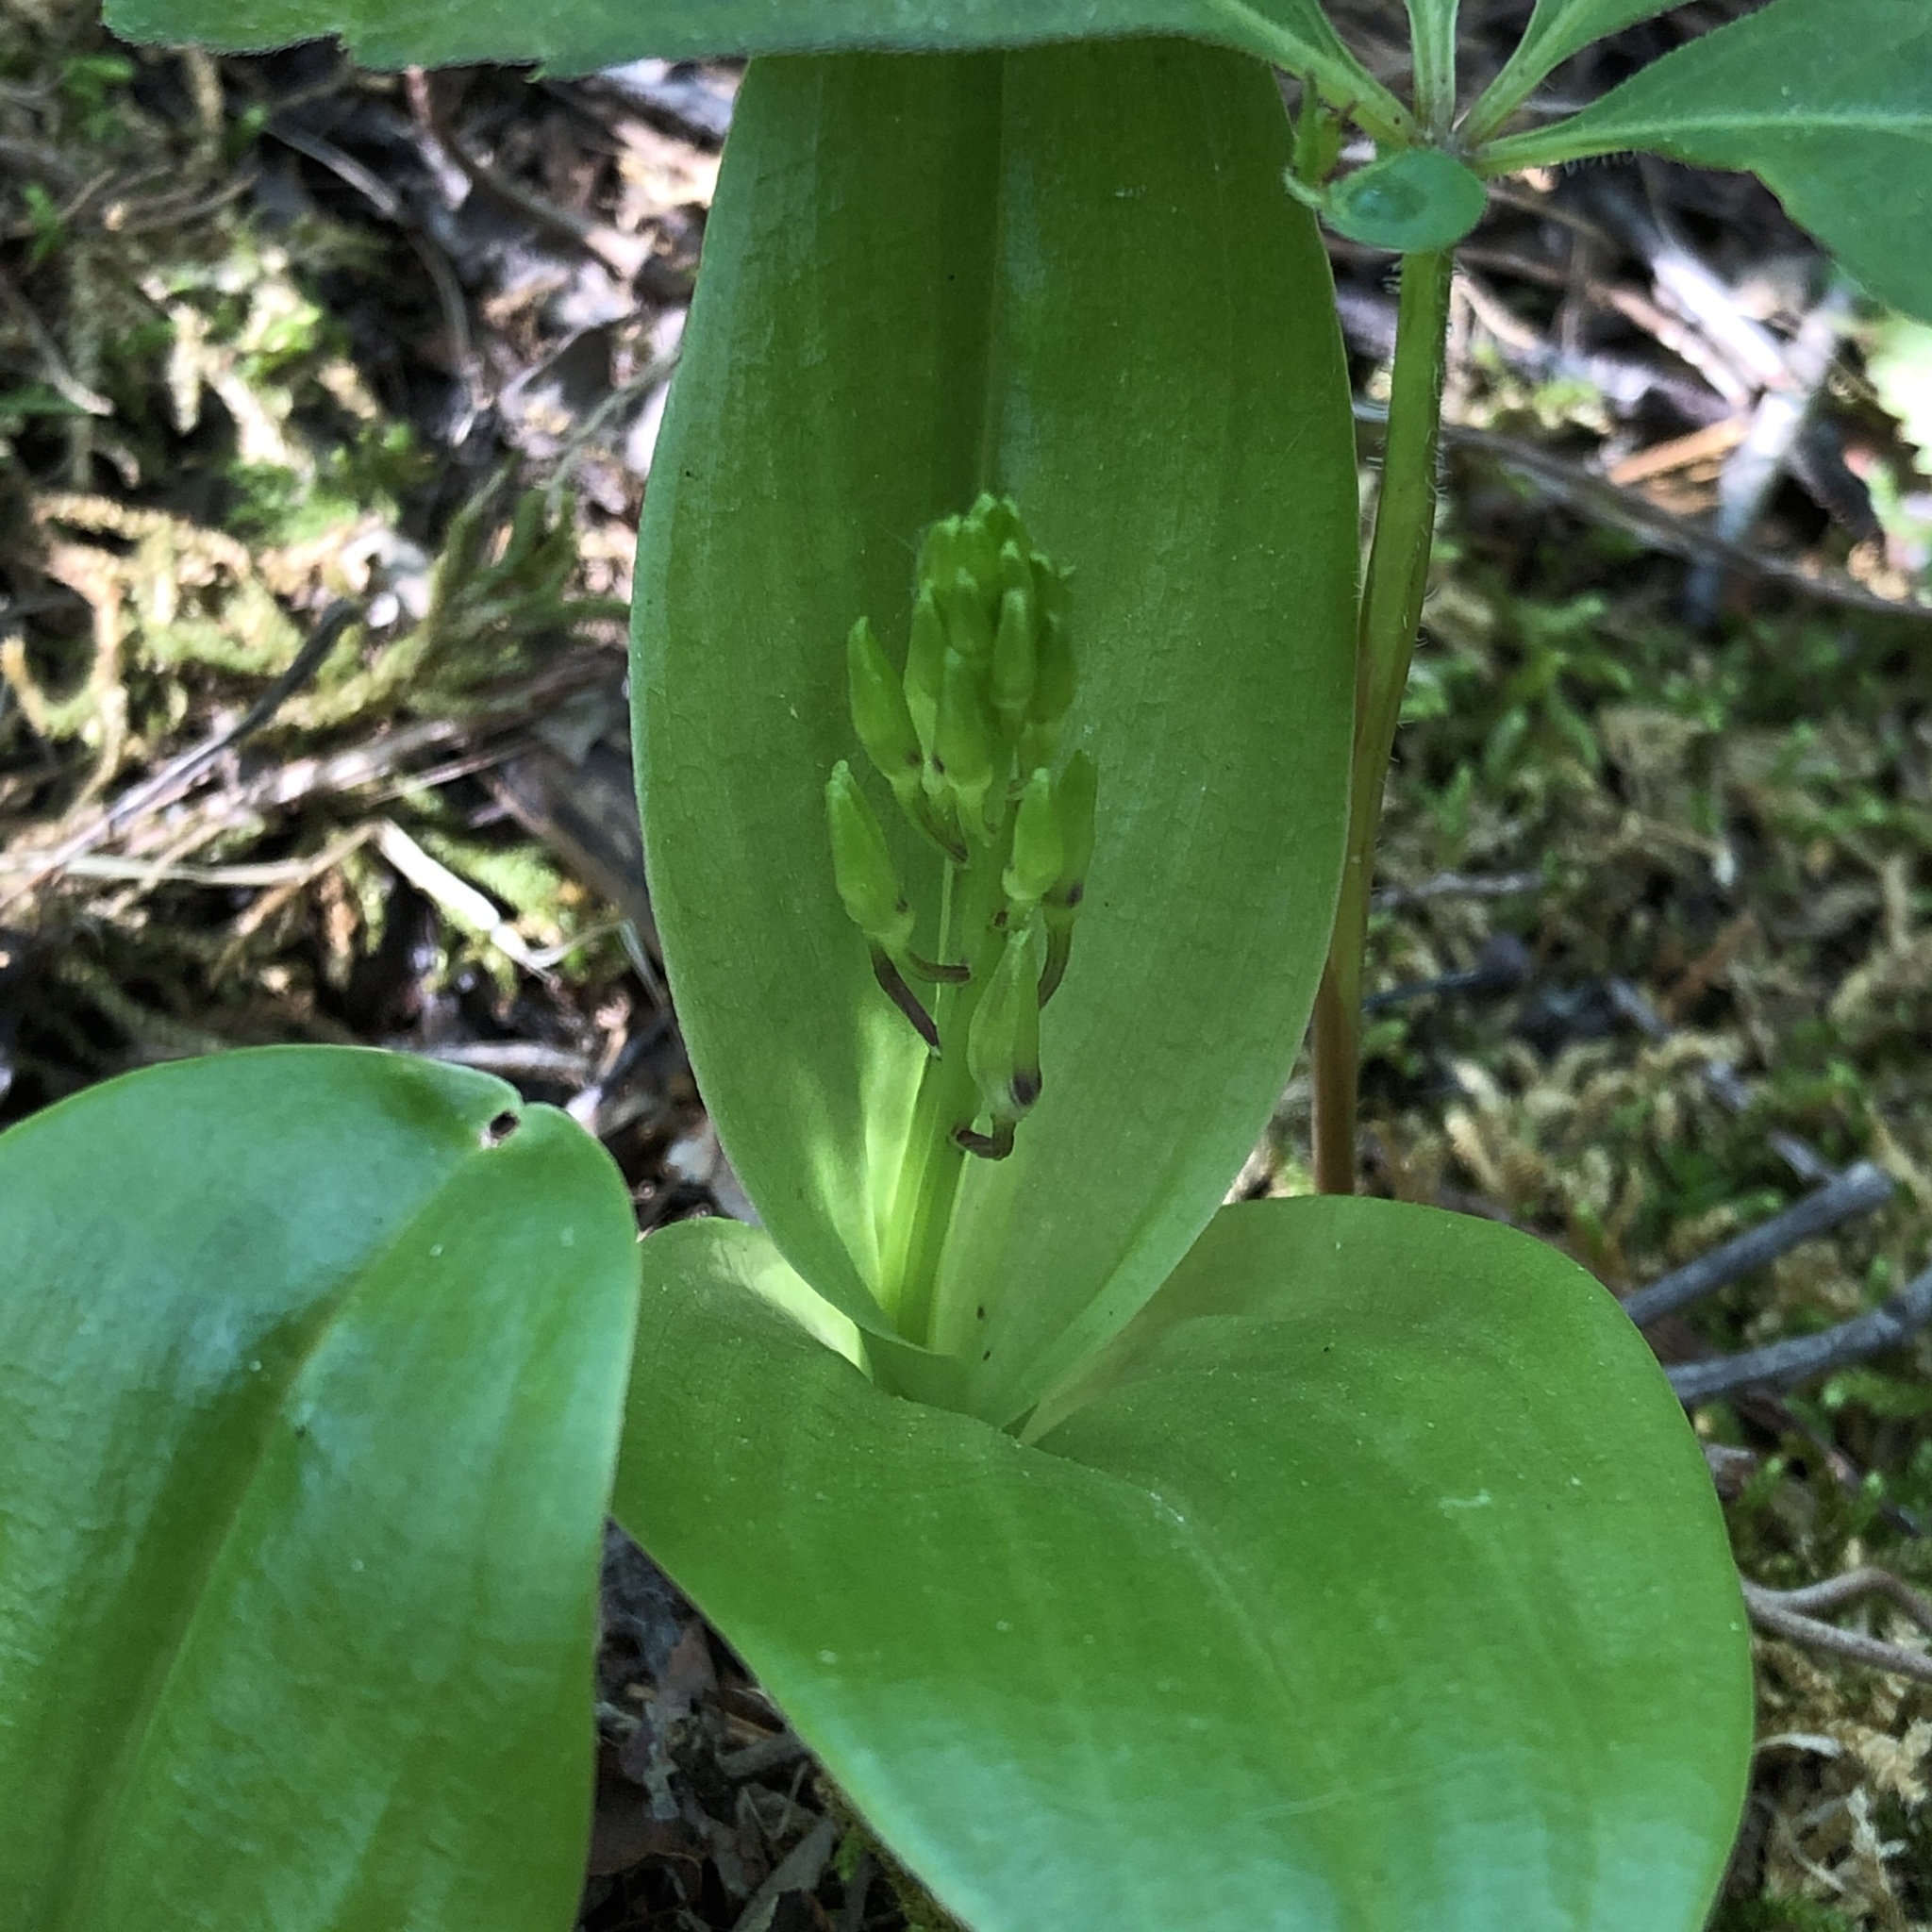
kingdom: Plantae
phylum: Tracheophyta
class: Liliopsida
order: Asparagales
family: Orchidaceae
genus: Liparis
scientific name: Liparis liliifolia
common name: Brown wide-lip orchid
